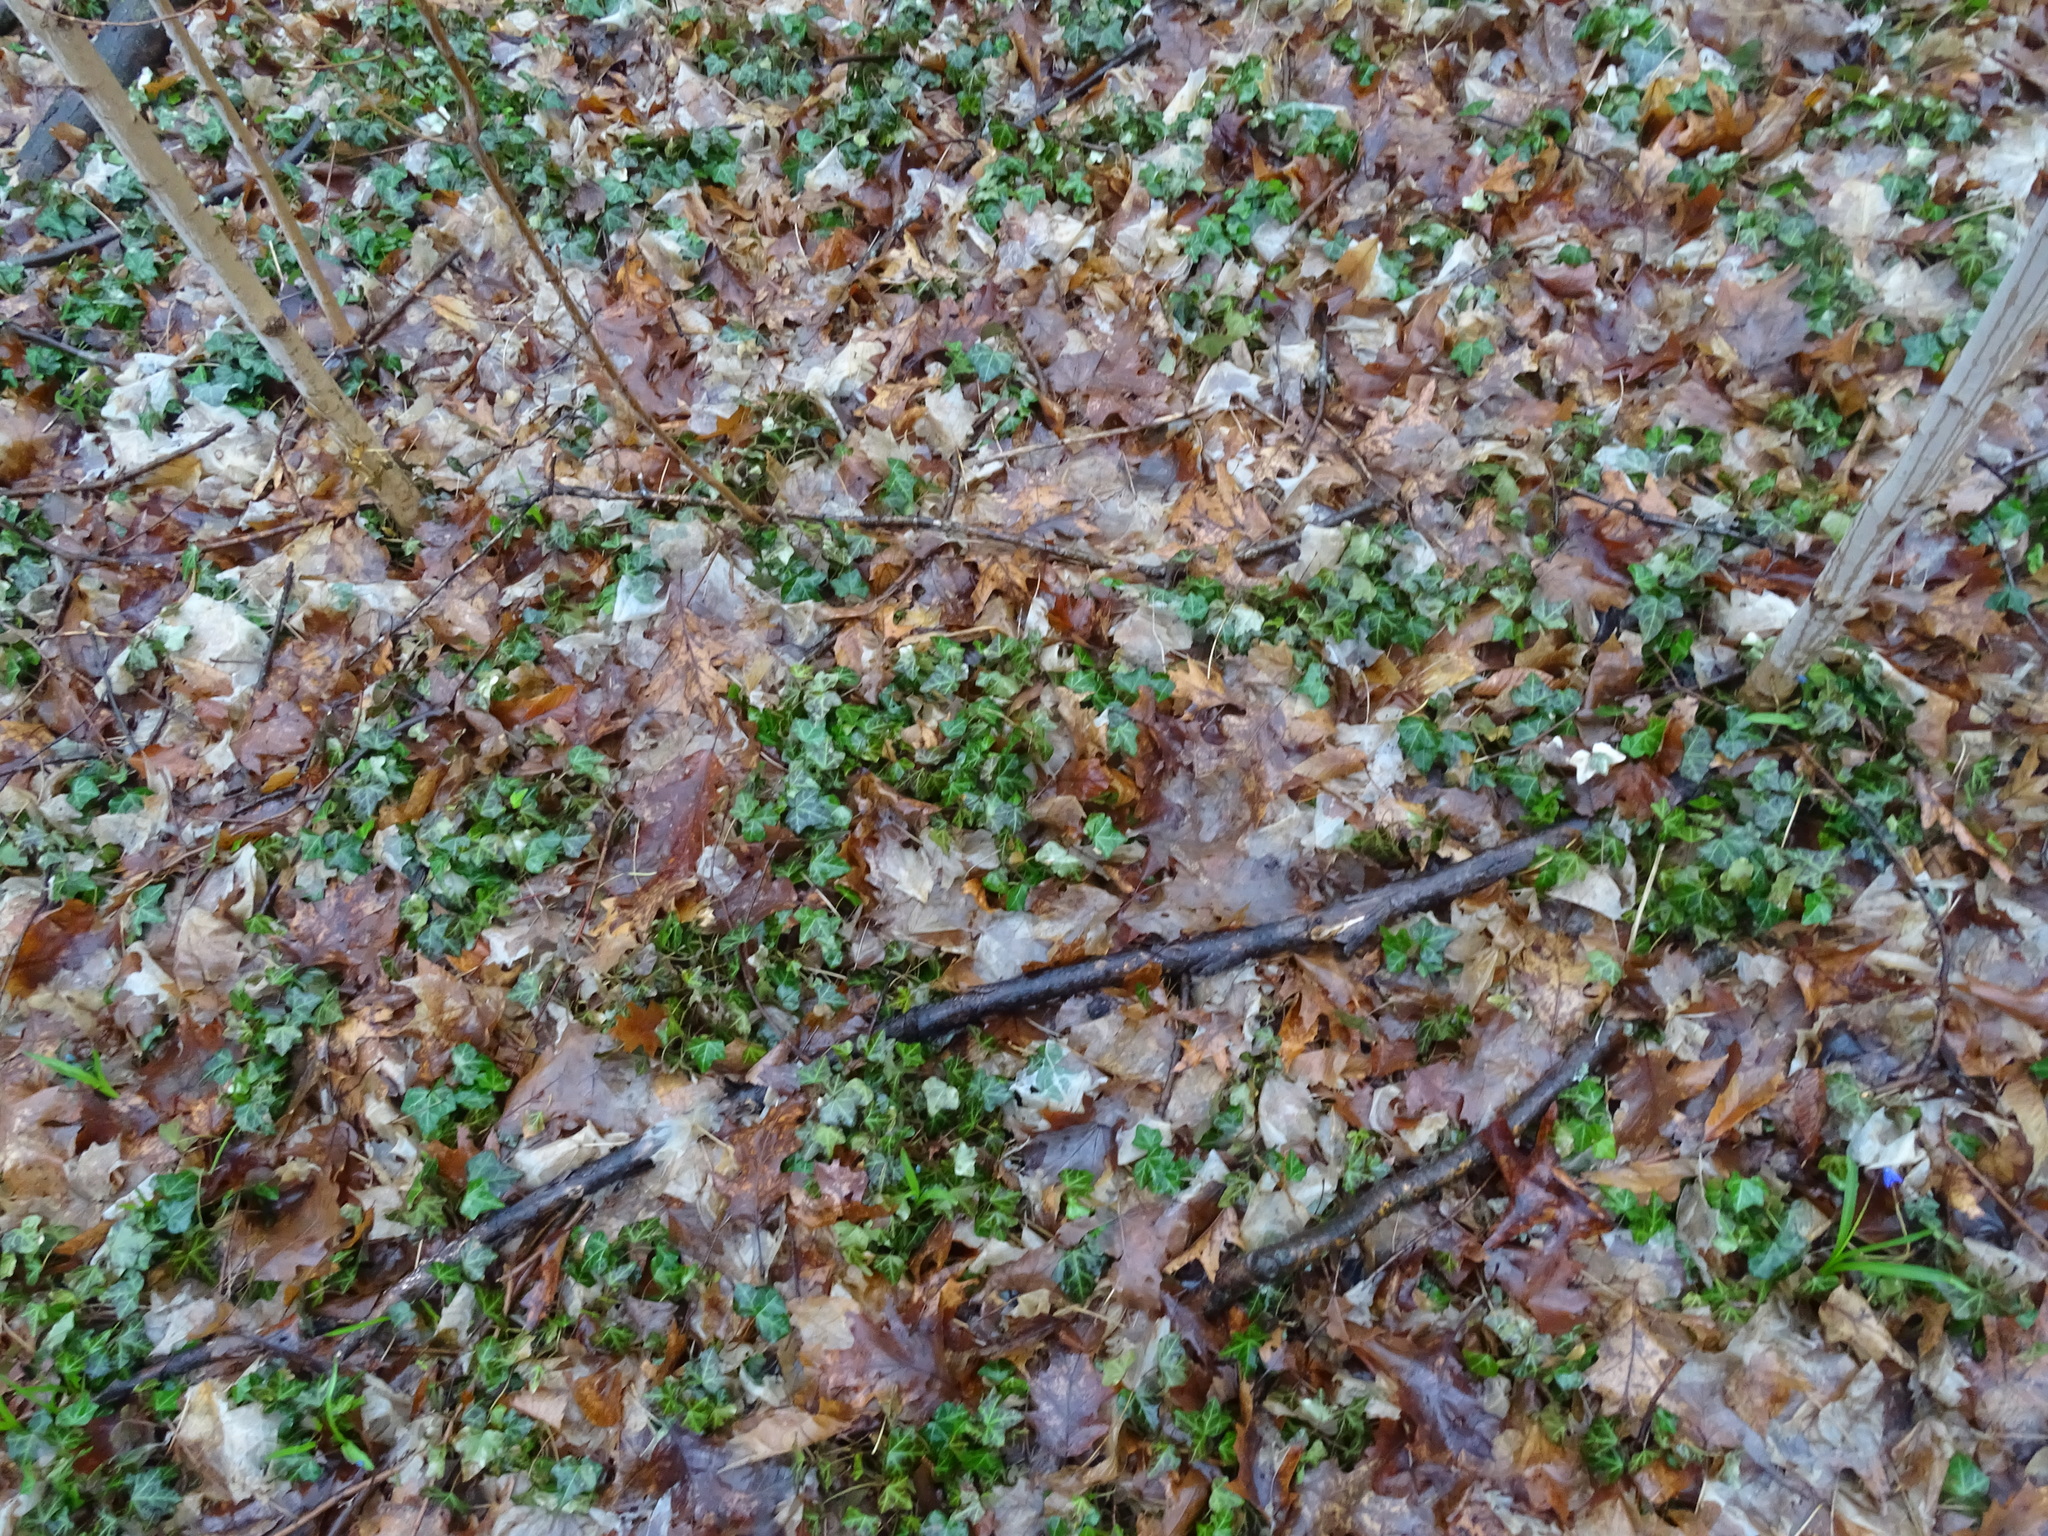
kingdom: Plantae
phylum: Tracheophyta
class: Magnoliopsida
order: Apiales
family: Araliaceae
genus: Hedera
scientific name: Hedera helix
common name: Ivy
